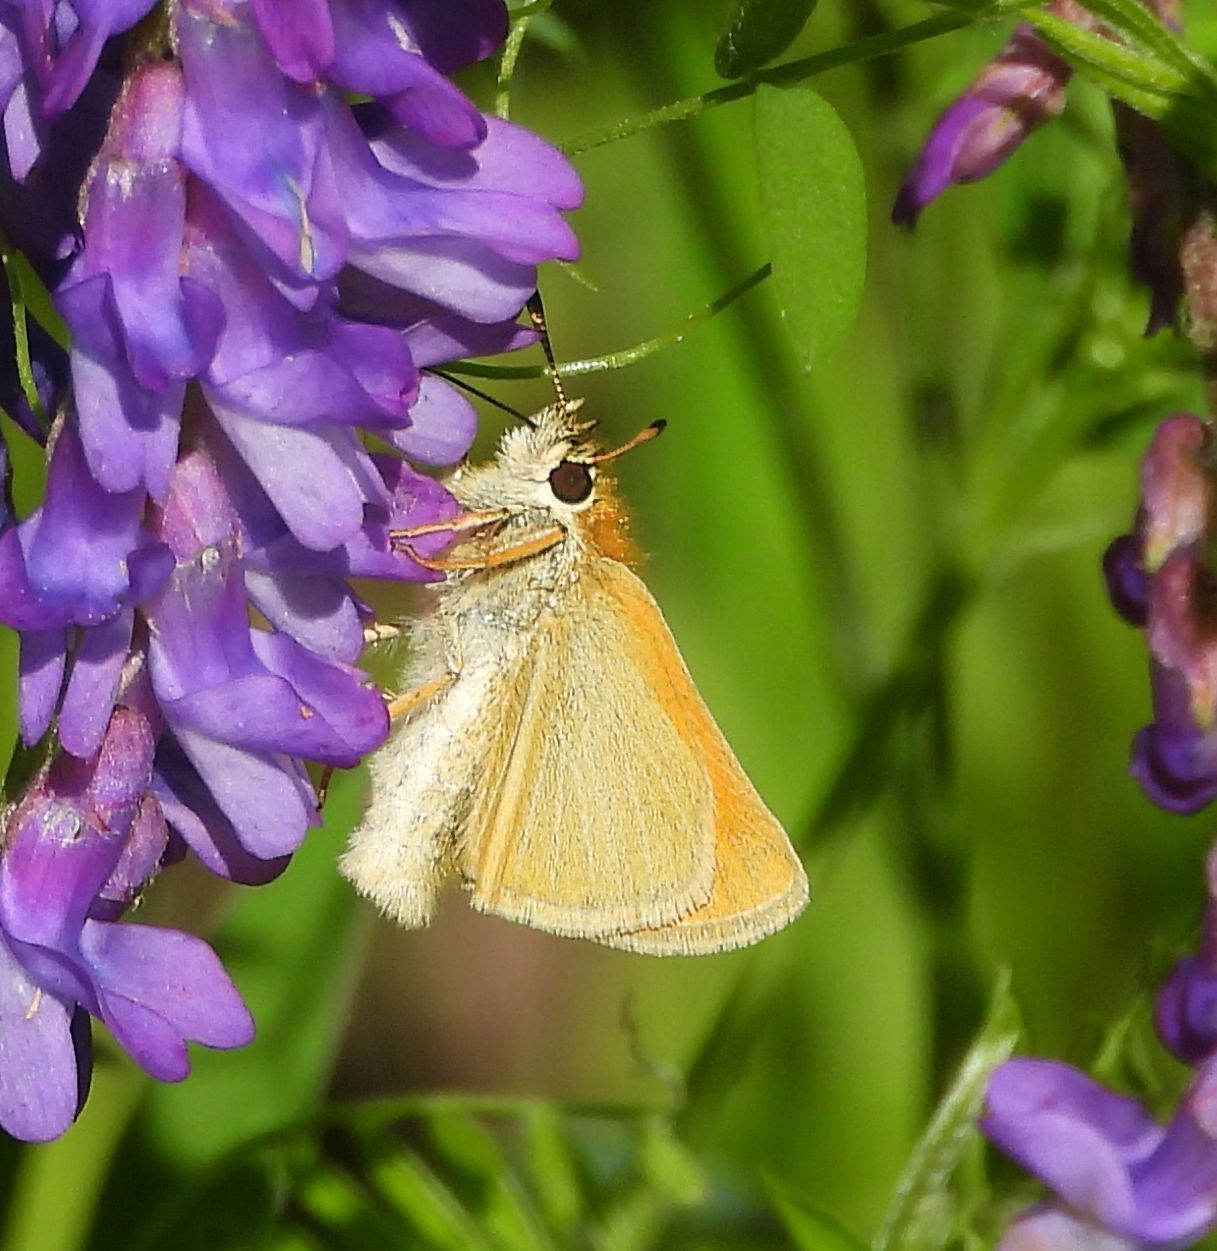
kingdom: Animalia
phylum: Arthropoda
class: Insecta
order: Lepidoptera
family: Hesperiidae
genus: Thymelicus
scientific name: Thymelicus lineola
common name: Essex skipper
